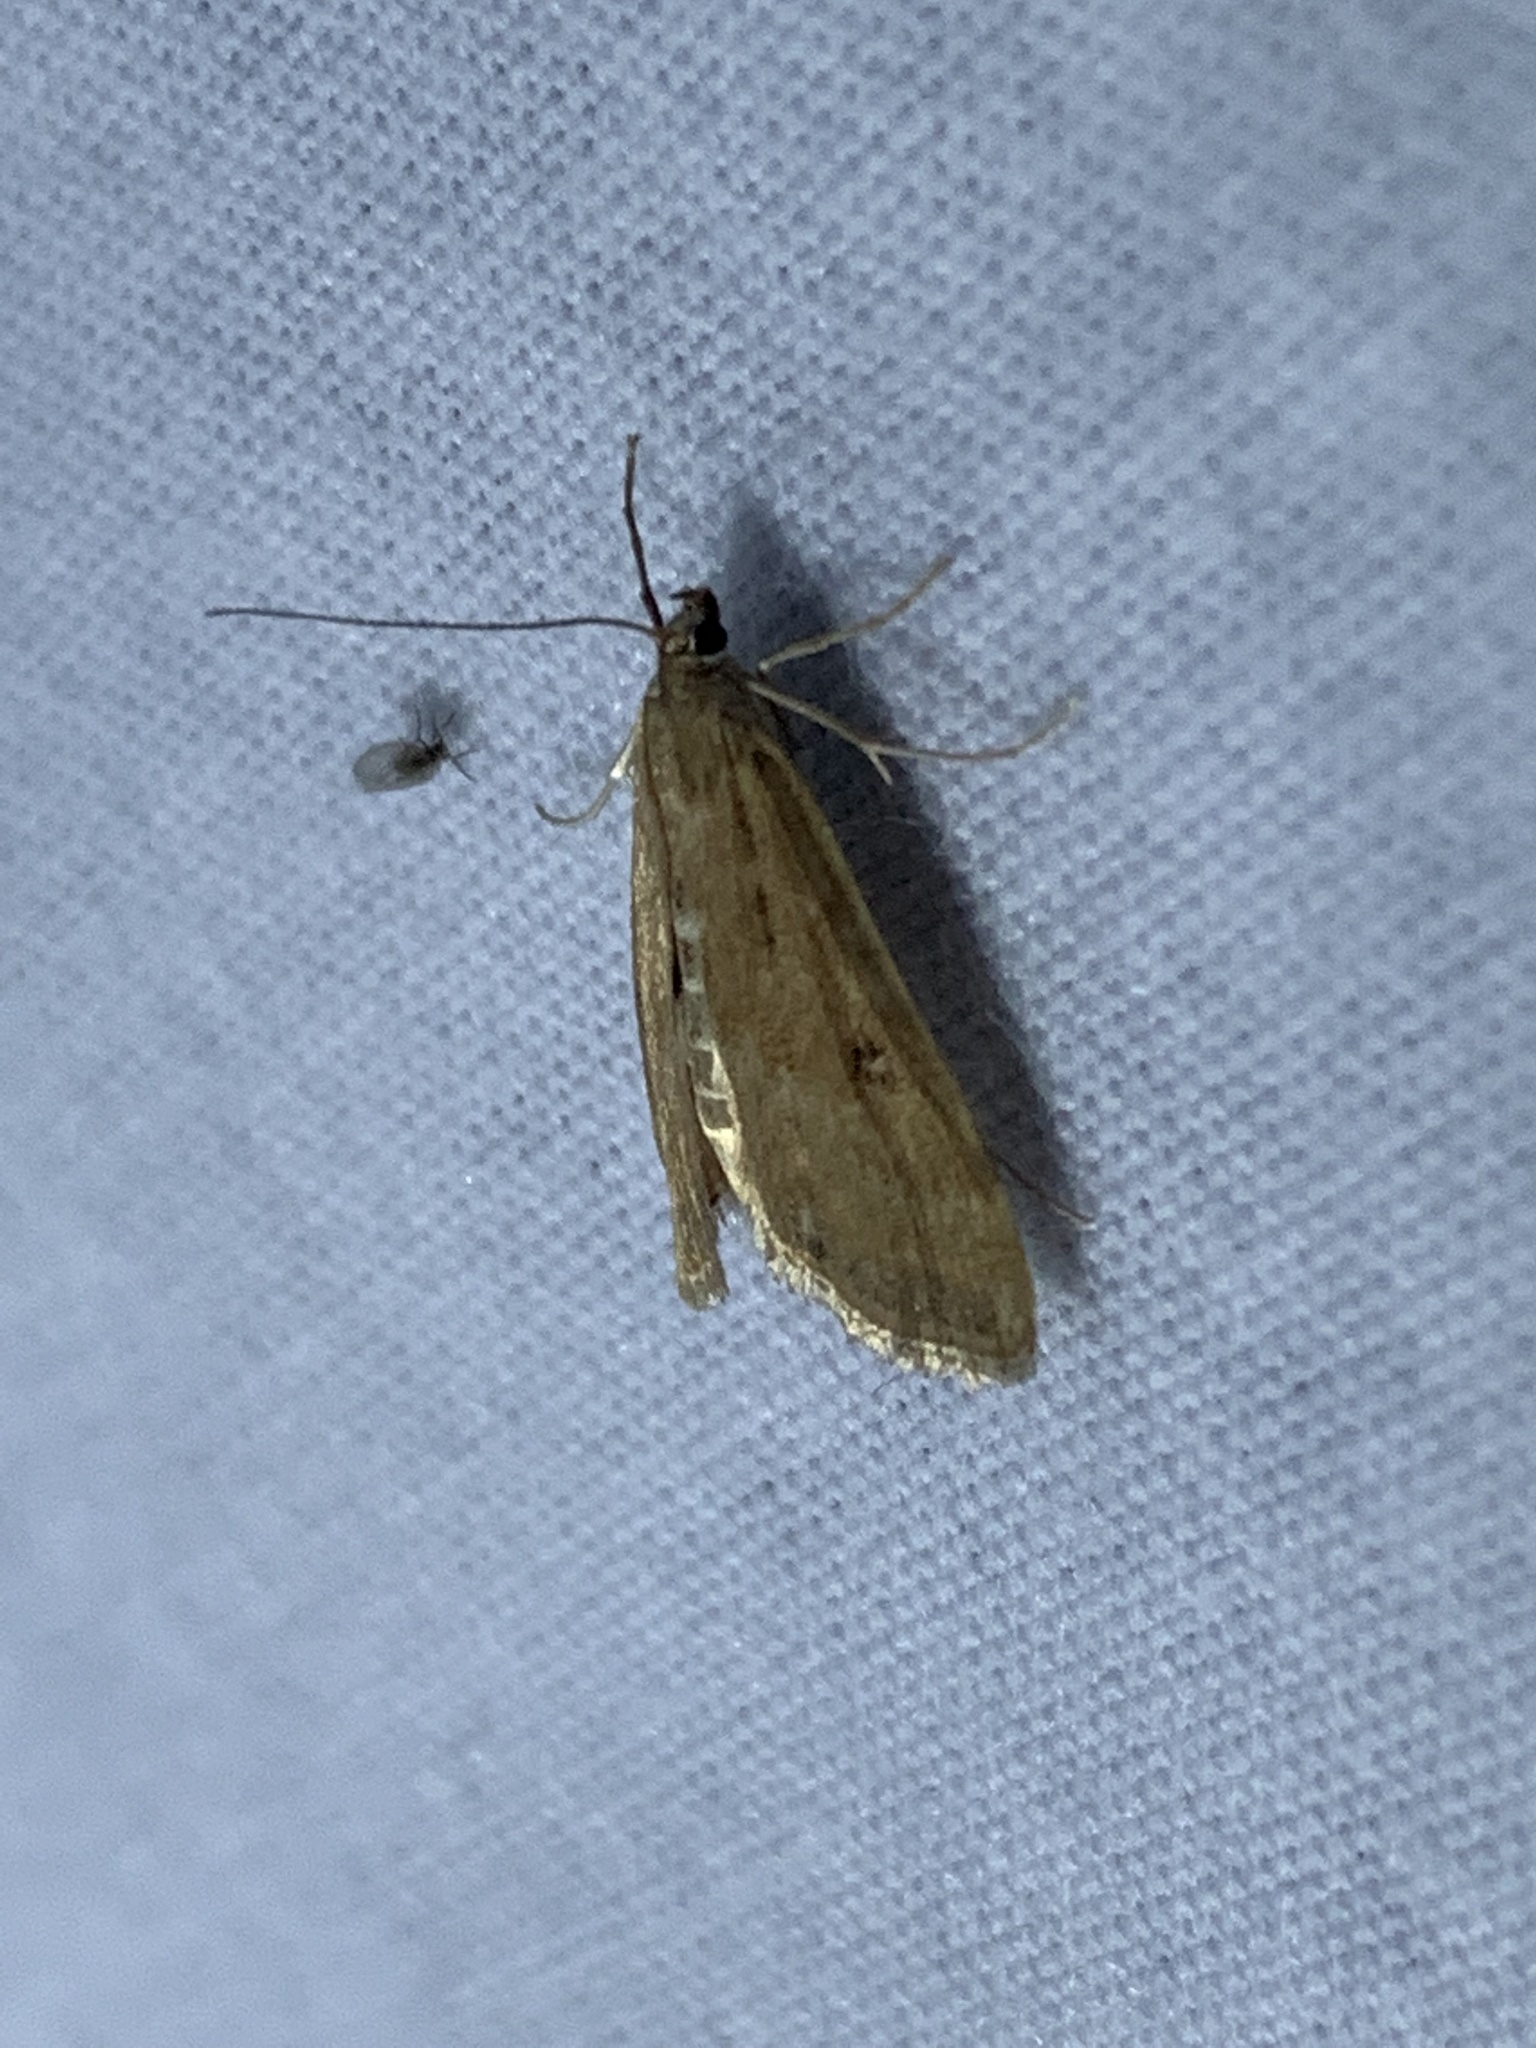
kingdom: Animalia
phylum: Arthropoda
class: Insecta
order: Lepidoptera
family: Crambidae
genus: Parapoynx
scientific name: Parapoynx stratiotata
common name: Ringed china-mark
